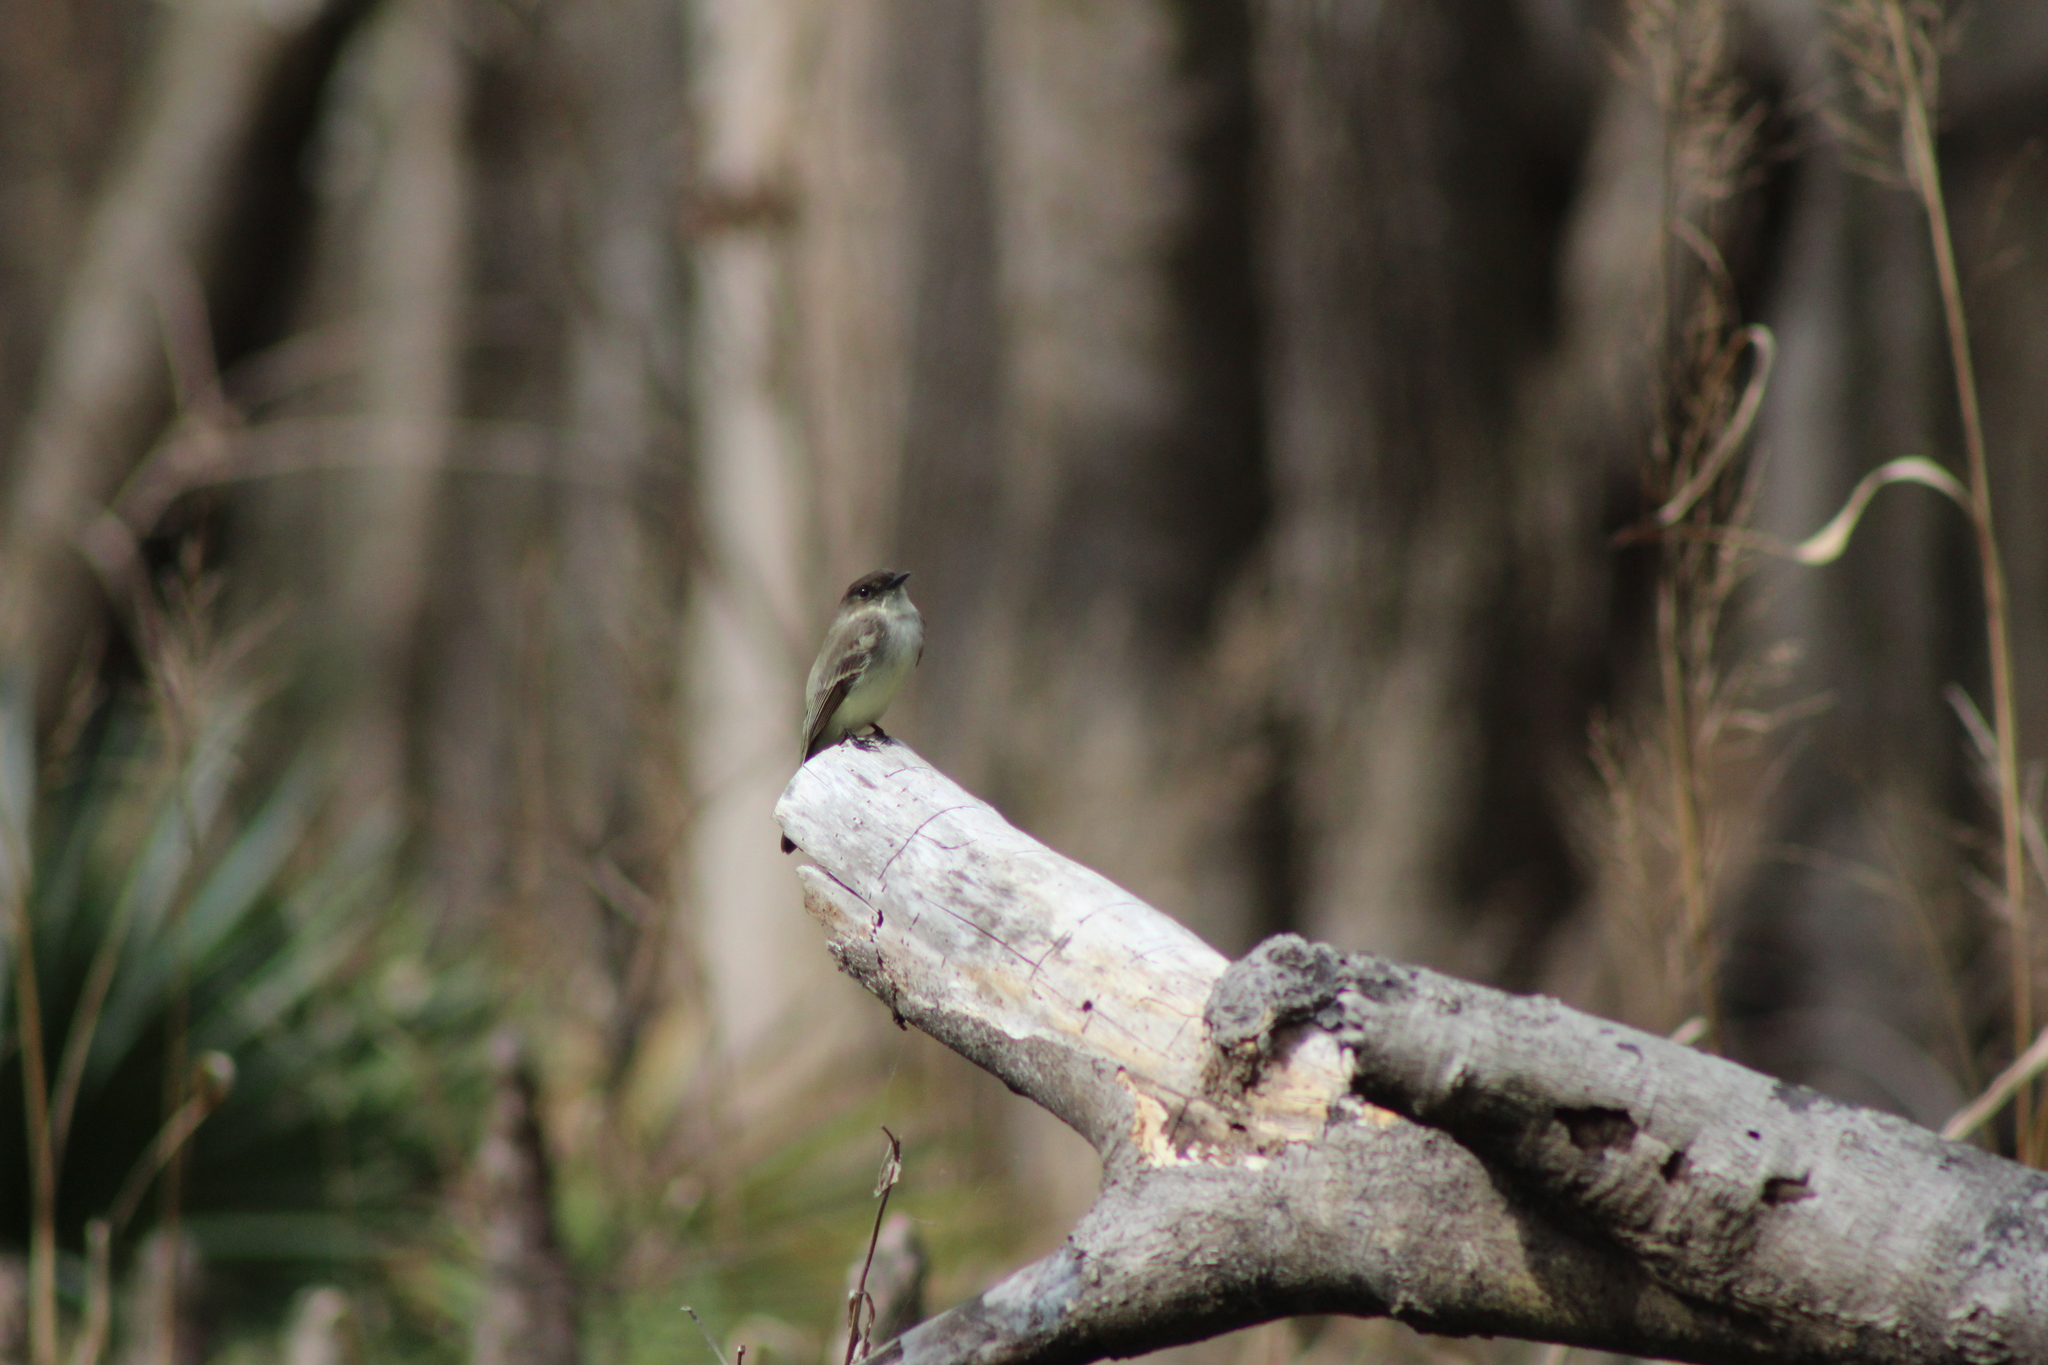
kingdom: Animalia
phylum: Chordata
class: Aves
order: Passeriformes
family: Tyrannidae
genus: Sayornis
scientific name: Sayornis phoebe
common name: Eastern phoebe
